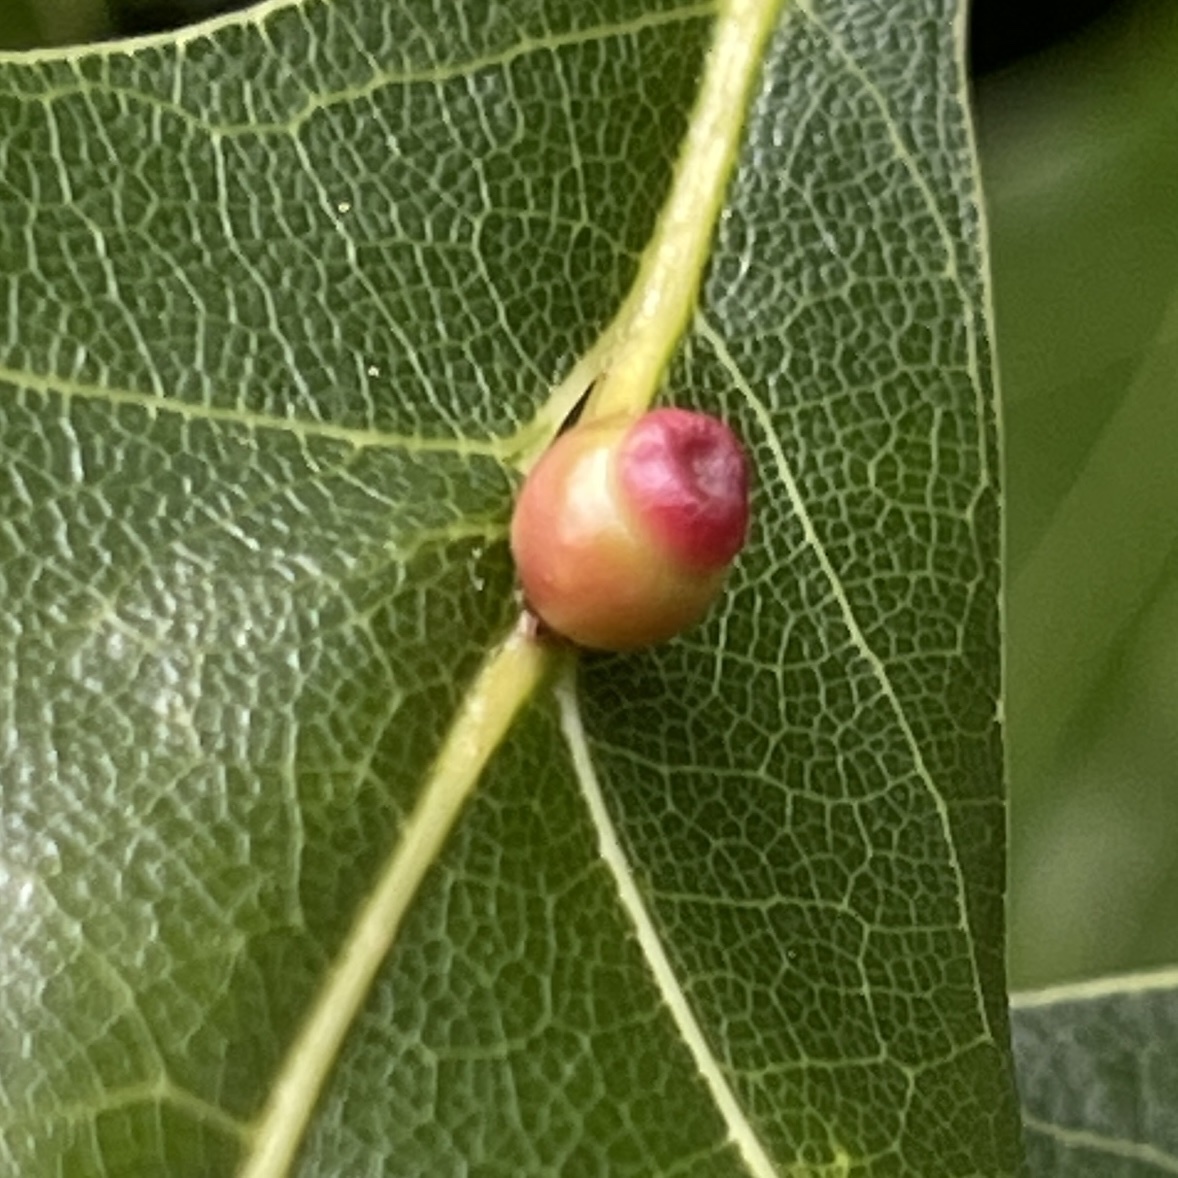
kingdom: Animalia
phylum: Arthropoda
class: Insecta
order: Hymenoptera
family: Cynipidae
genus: Kokkocynips
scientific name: Kokkocynips rileyi
